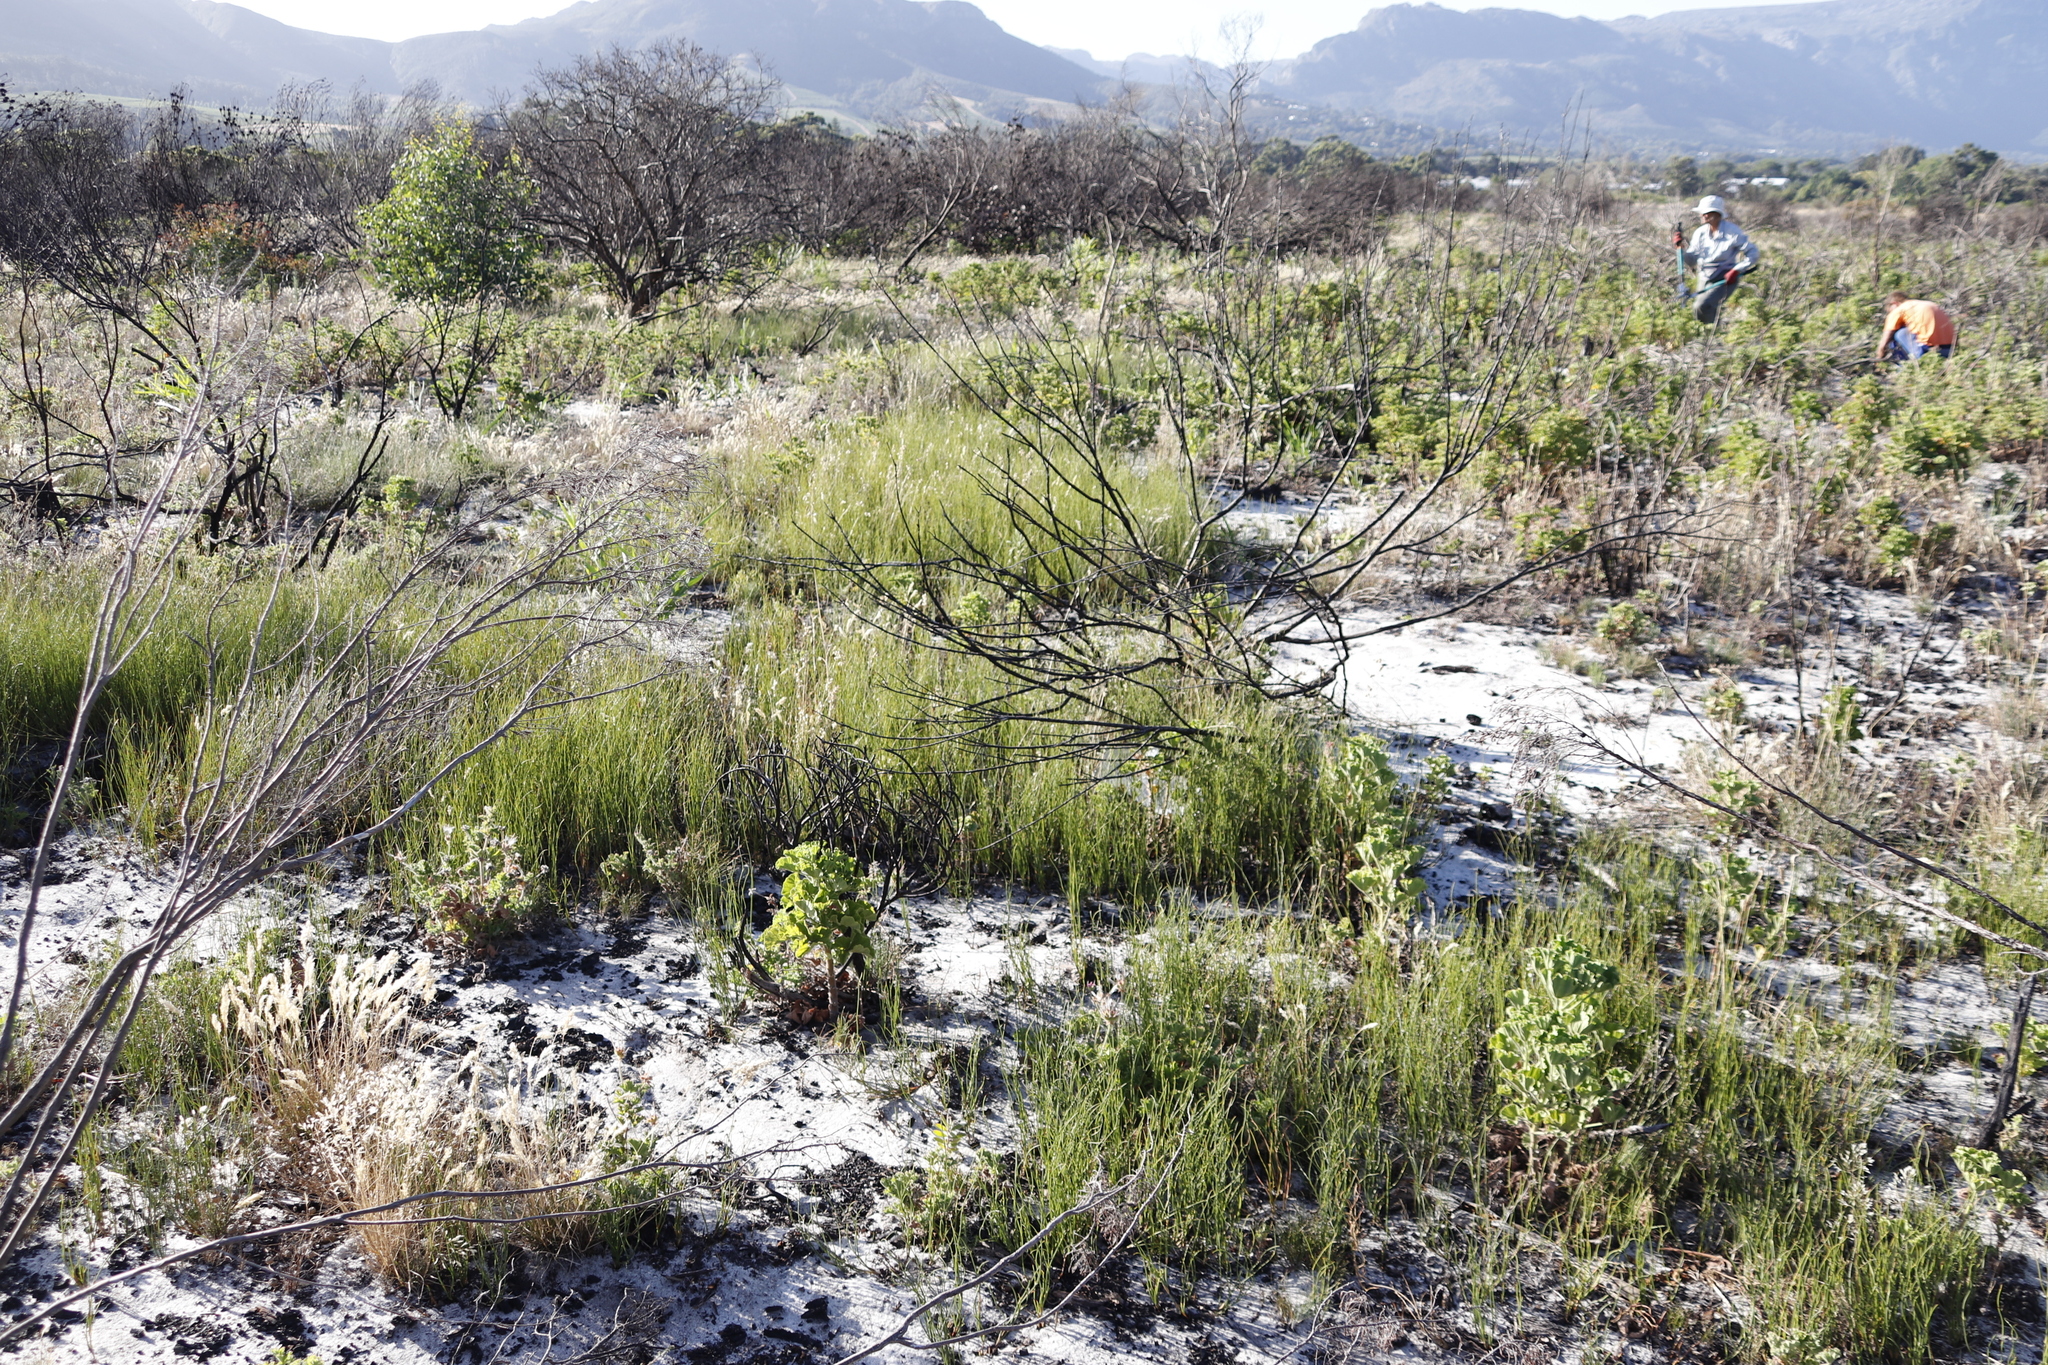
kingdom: Plantae
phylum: Tracheophyta
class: Liliopsida
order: Poales
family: Restionaceae
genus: Willdenowia
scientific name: Willdenowia sulcata
